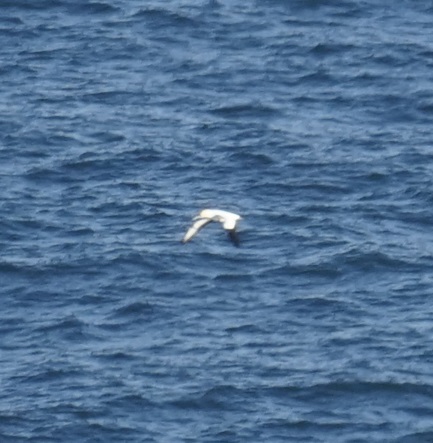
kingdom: Animalia
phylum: Chordata
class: Aves
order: Suliformes
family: Sulidae
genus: Morus
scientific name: Morus serrator
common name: Australasian gannet
